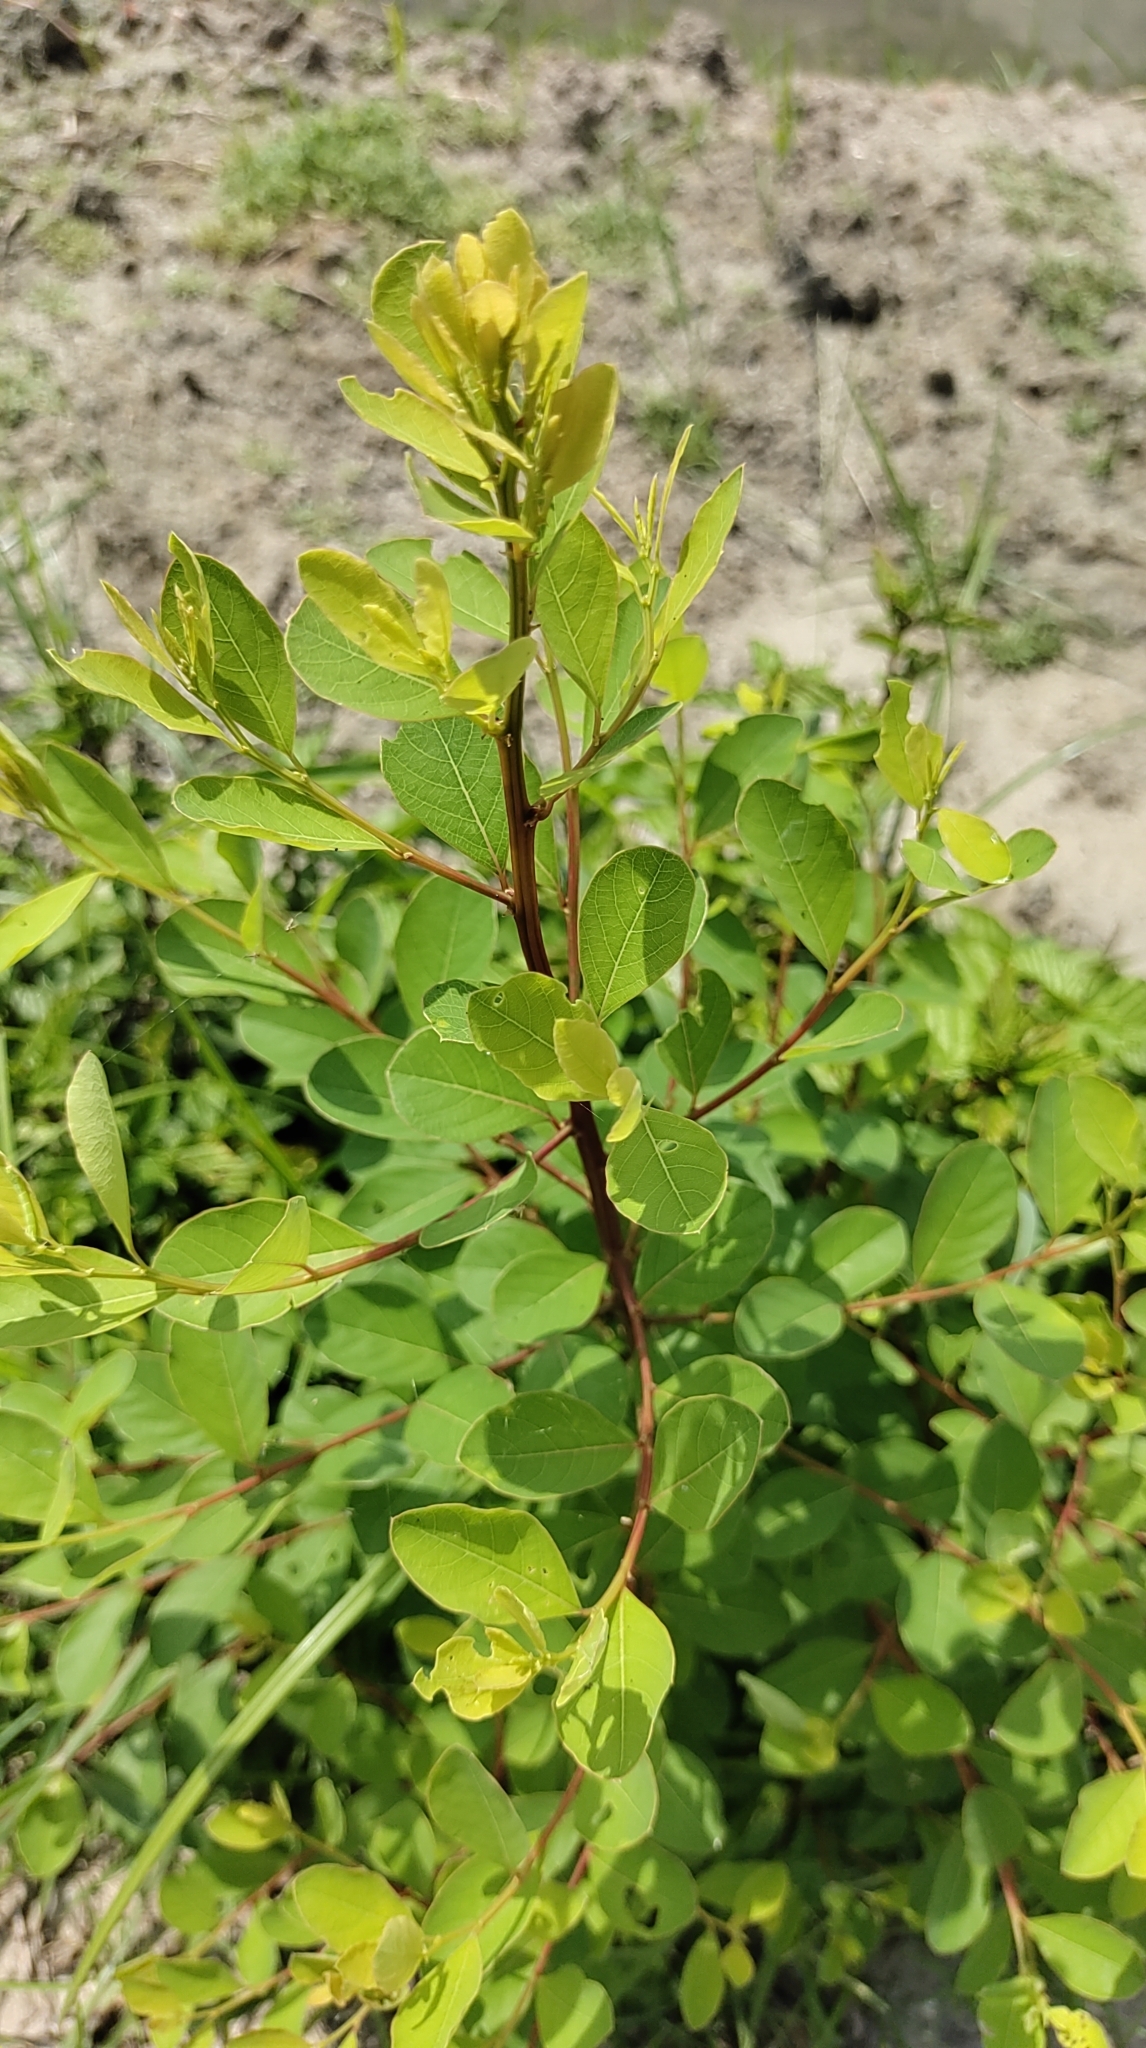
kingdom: Plantae
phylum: Tracheophyta
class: Magnoliopsida
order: Malpighiales
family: Phyllanthaceae
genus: Flueggea
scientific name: Flueggea virosa
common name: Common bushweed
